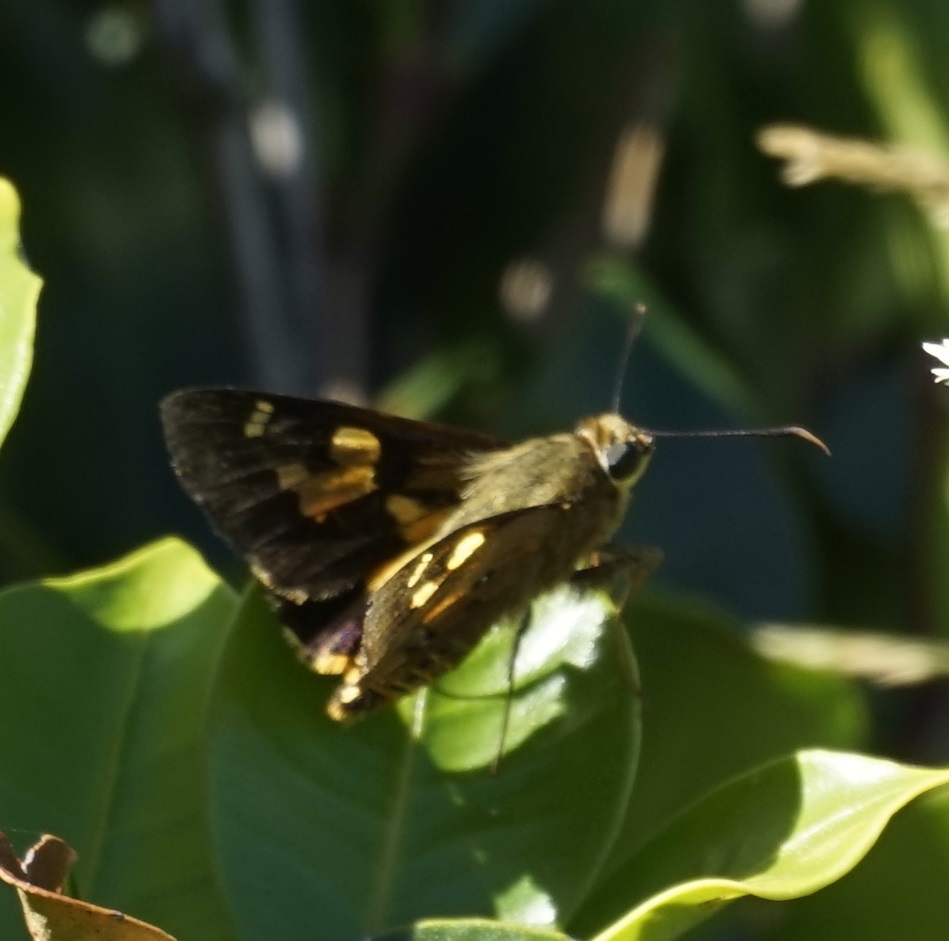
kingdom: Animalia
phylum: Arthropoda
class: Insecta
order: Lepidoptera
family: Hesperiidae
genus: Trapezites
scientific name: Trapezites symmomus
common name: Splendid ochre
